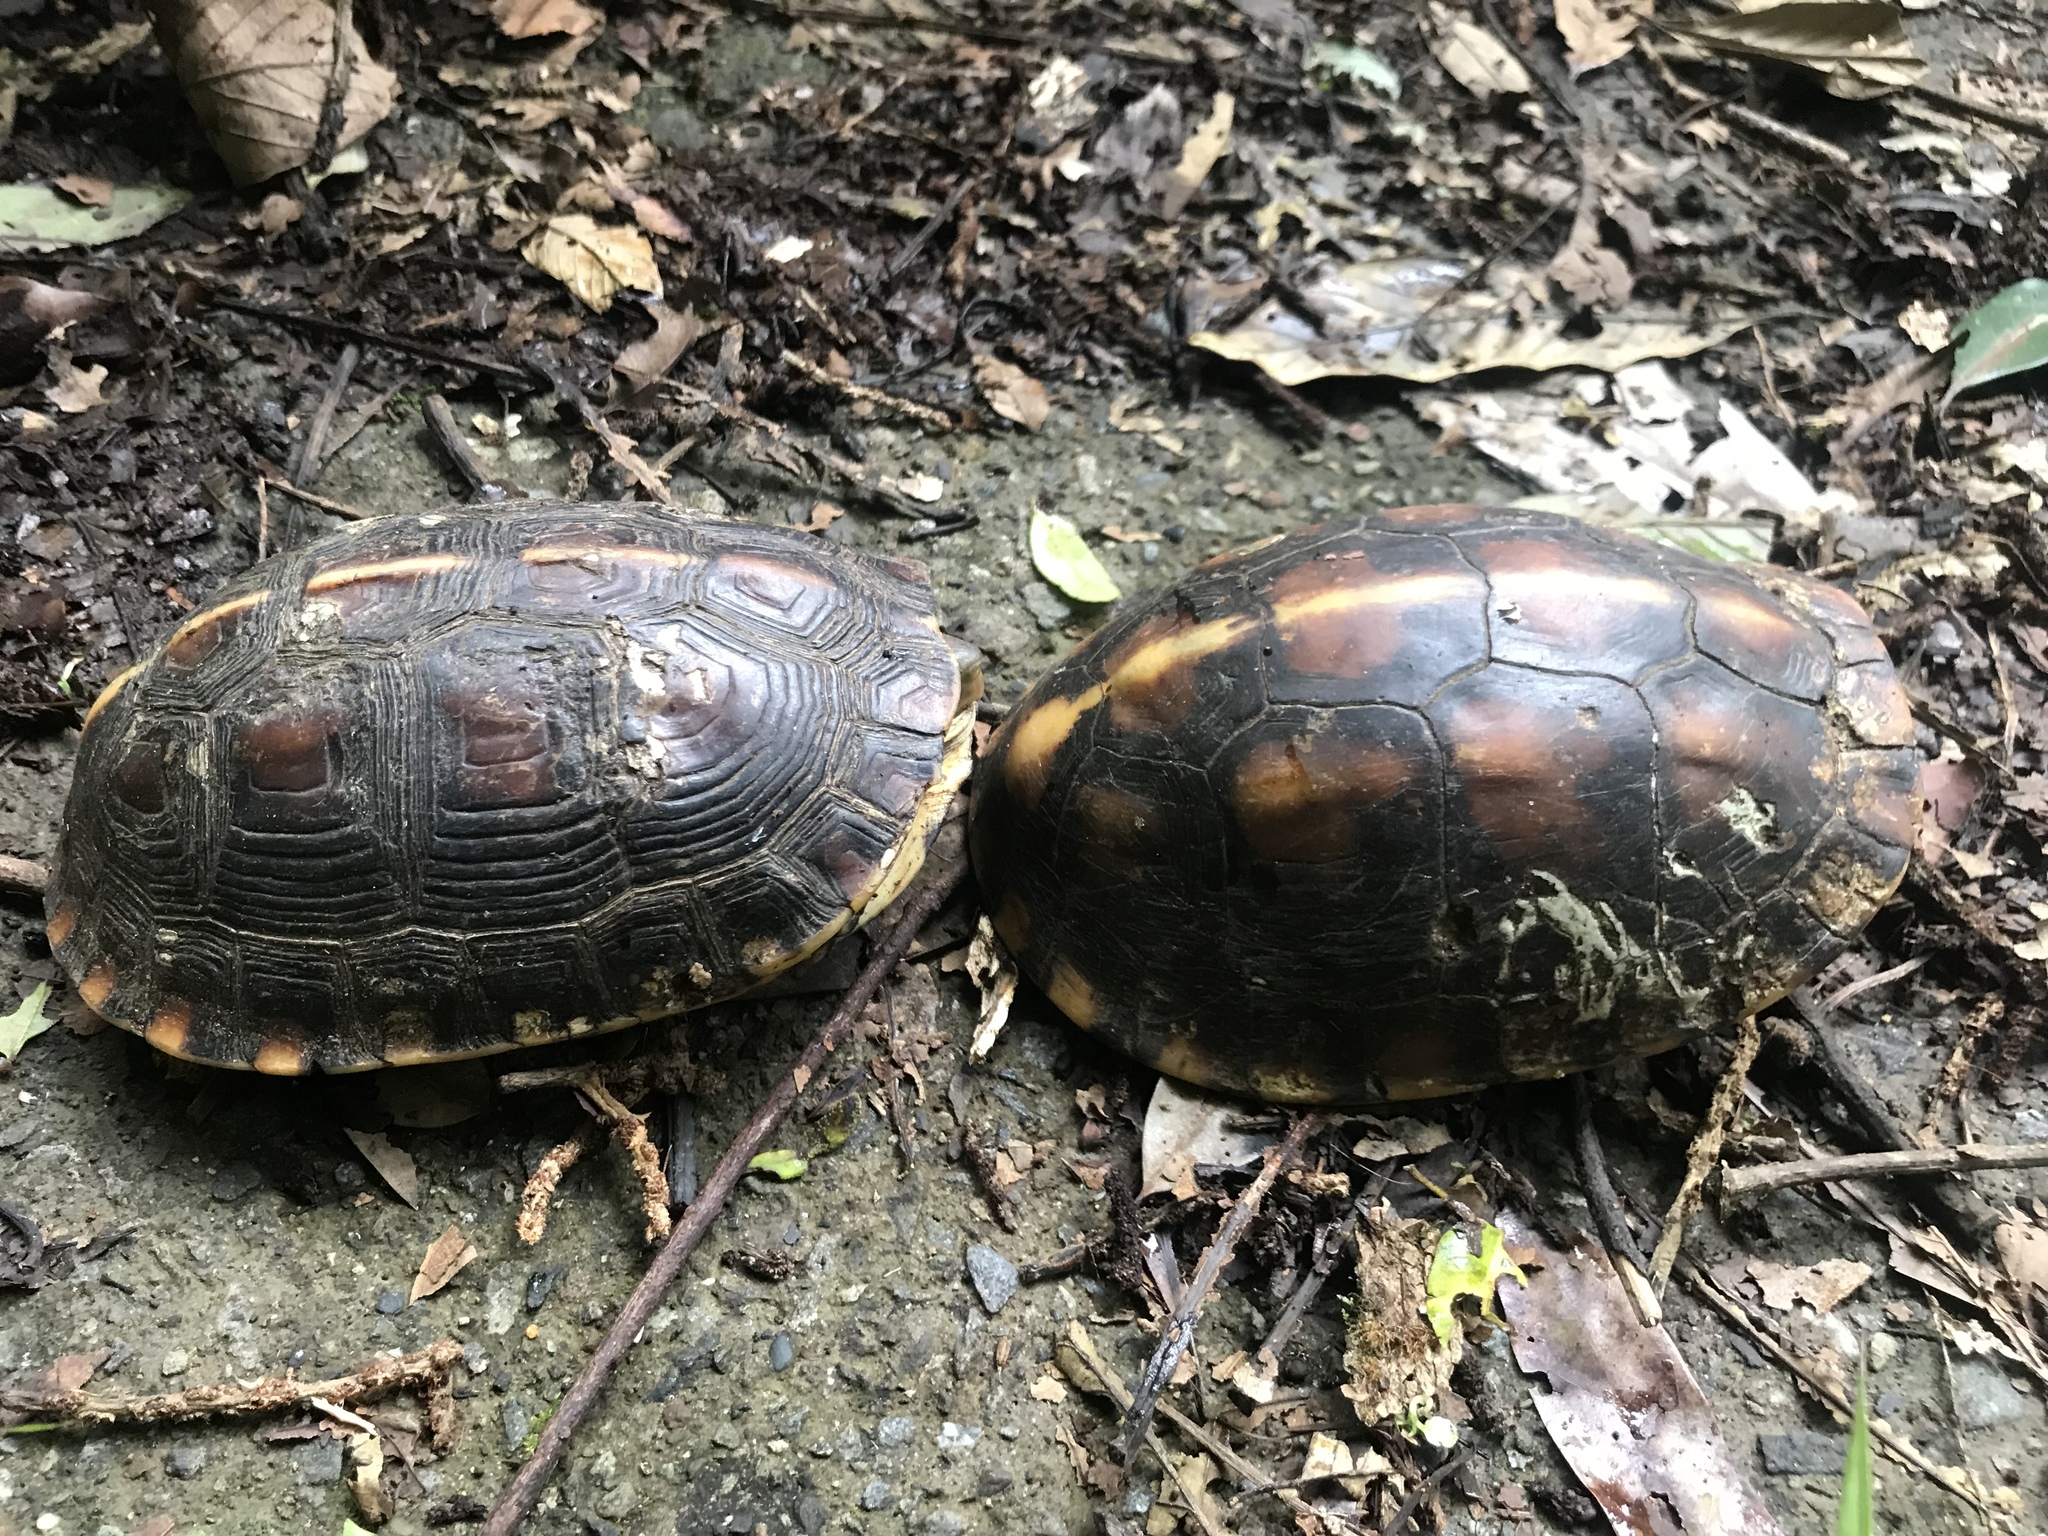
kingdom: Animalia
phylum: Chordata
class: Testudines
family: Geoemydidae
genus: Cuora
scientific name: Cuora flavomarginata
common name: Yellow-margined box turtle
